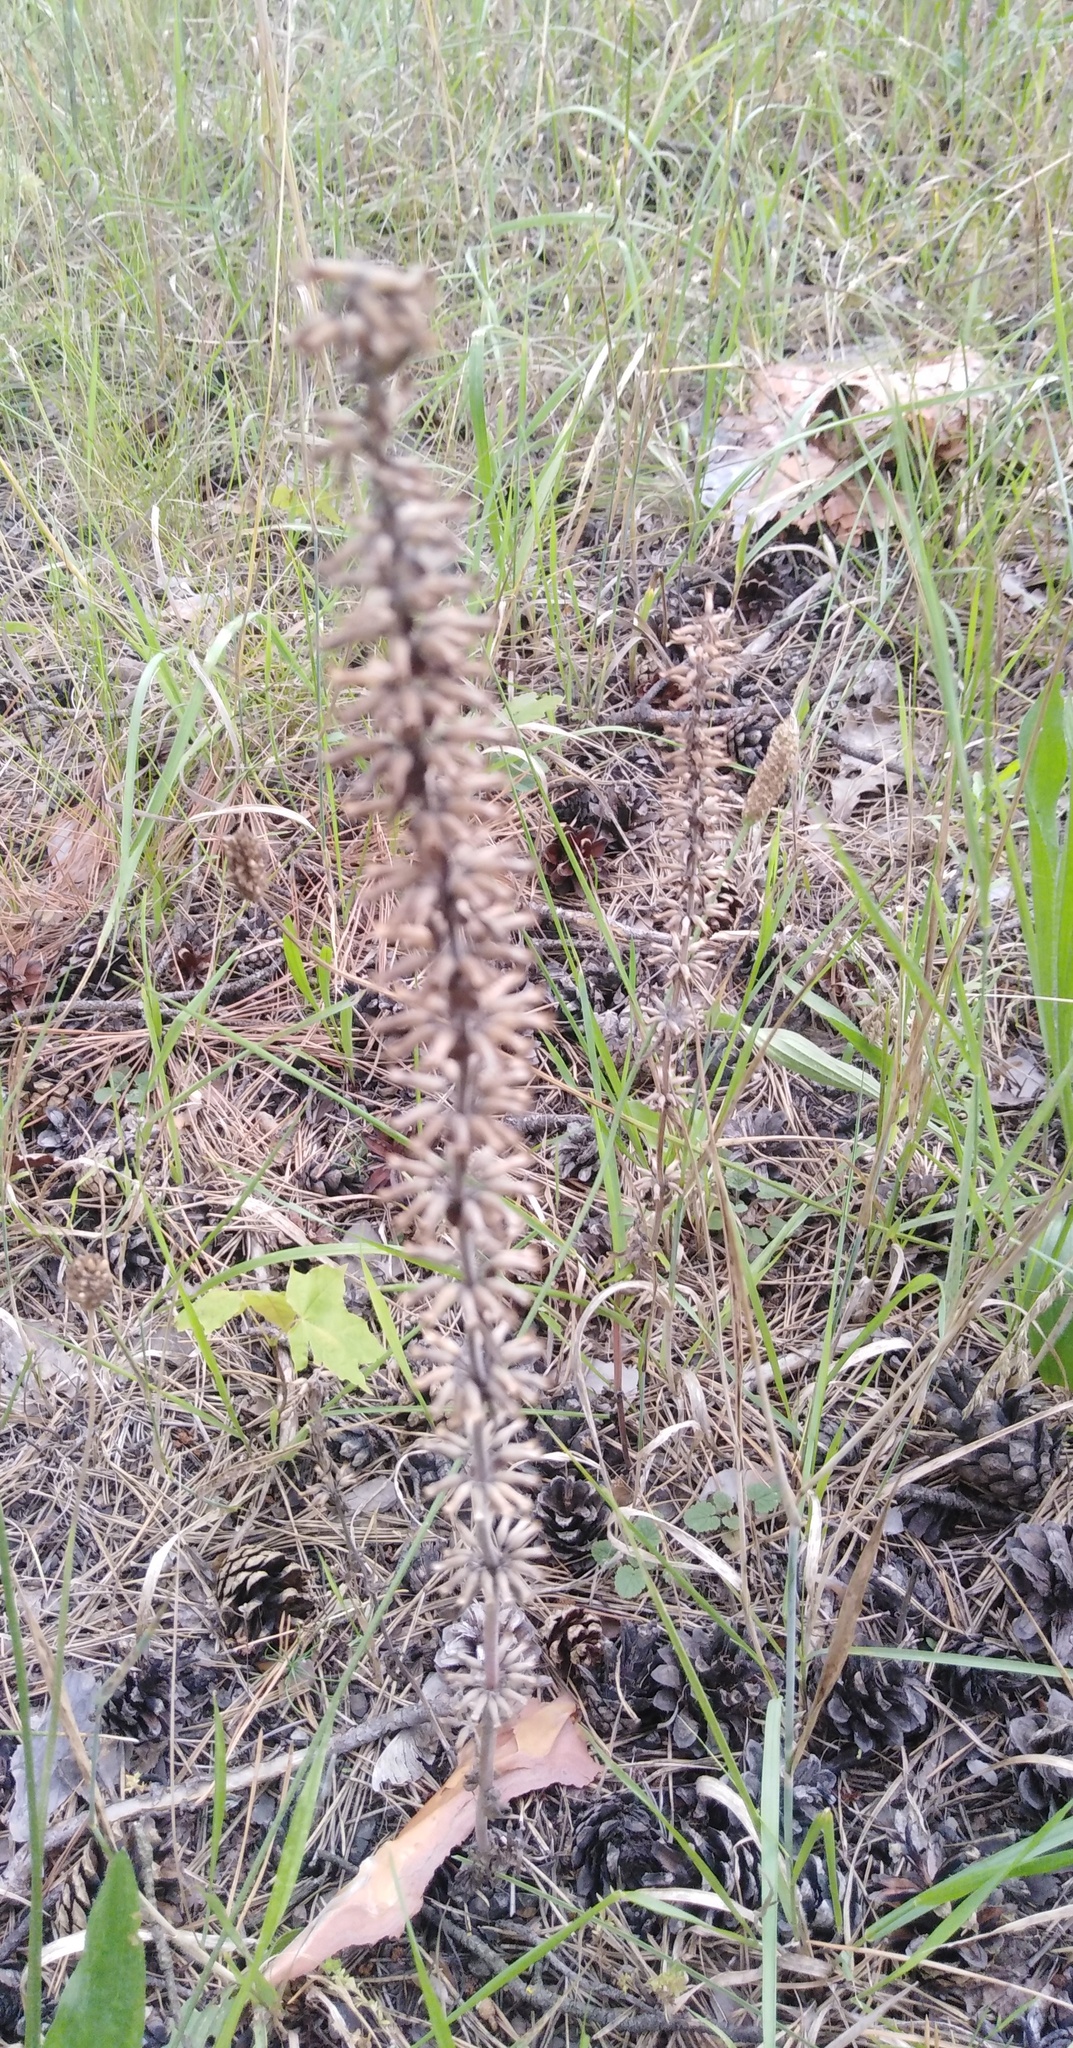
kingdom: Plantae
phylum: Tracheophyta
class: Magnoliopsida
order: Lamiales
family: Lamiaceae
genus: Dracocephalum
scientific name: Dracocephalum thymiflorum
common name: Thymeleaf dragonhead
